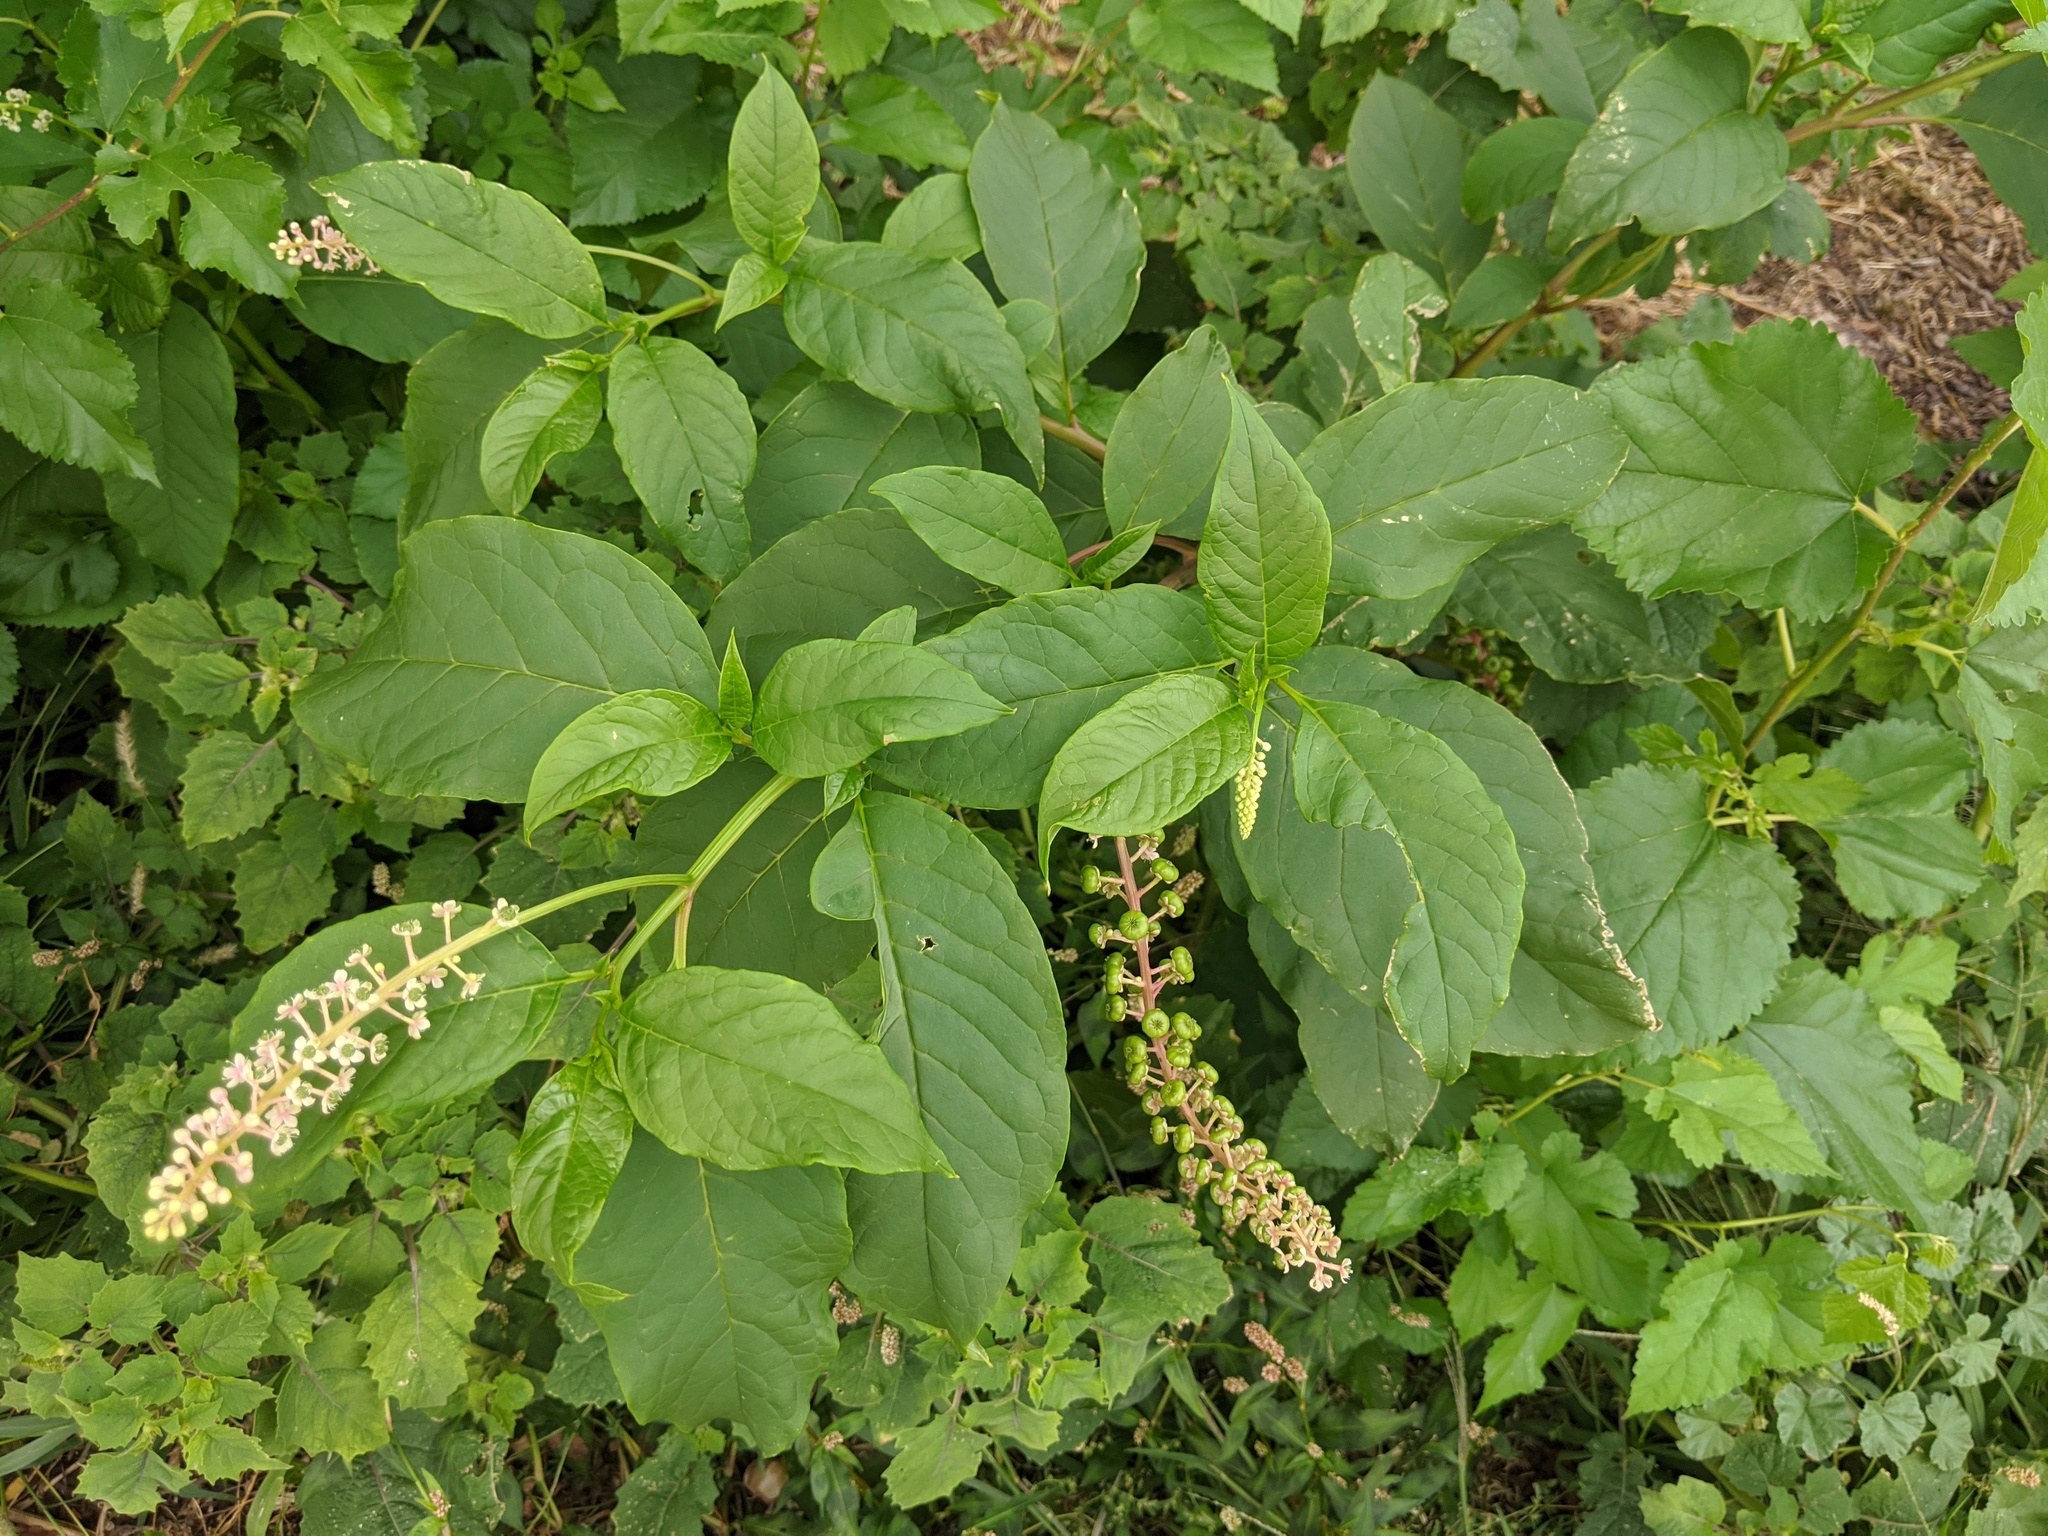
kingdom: Plantae
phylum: Tracheophyta
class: Magnoliopsida
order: Caryophyllales
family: Phytolaccaceae
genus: Phytolacca
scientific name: Phytolacca americana
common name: American pokeweed
